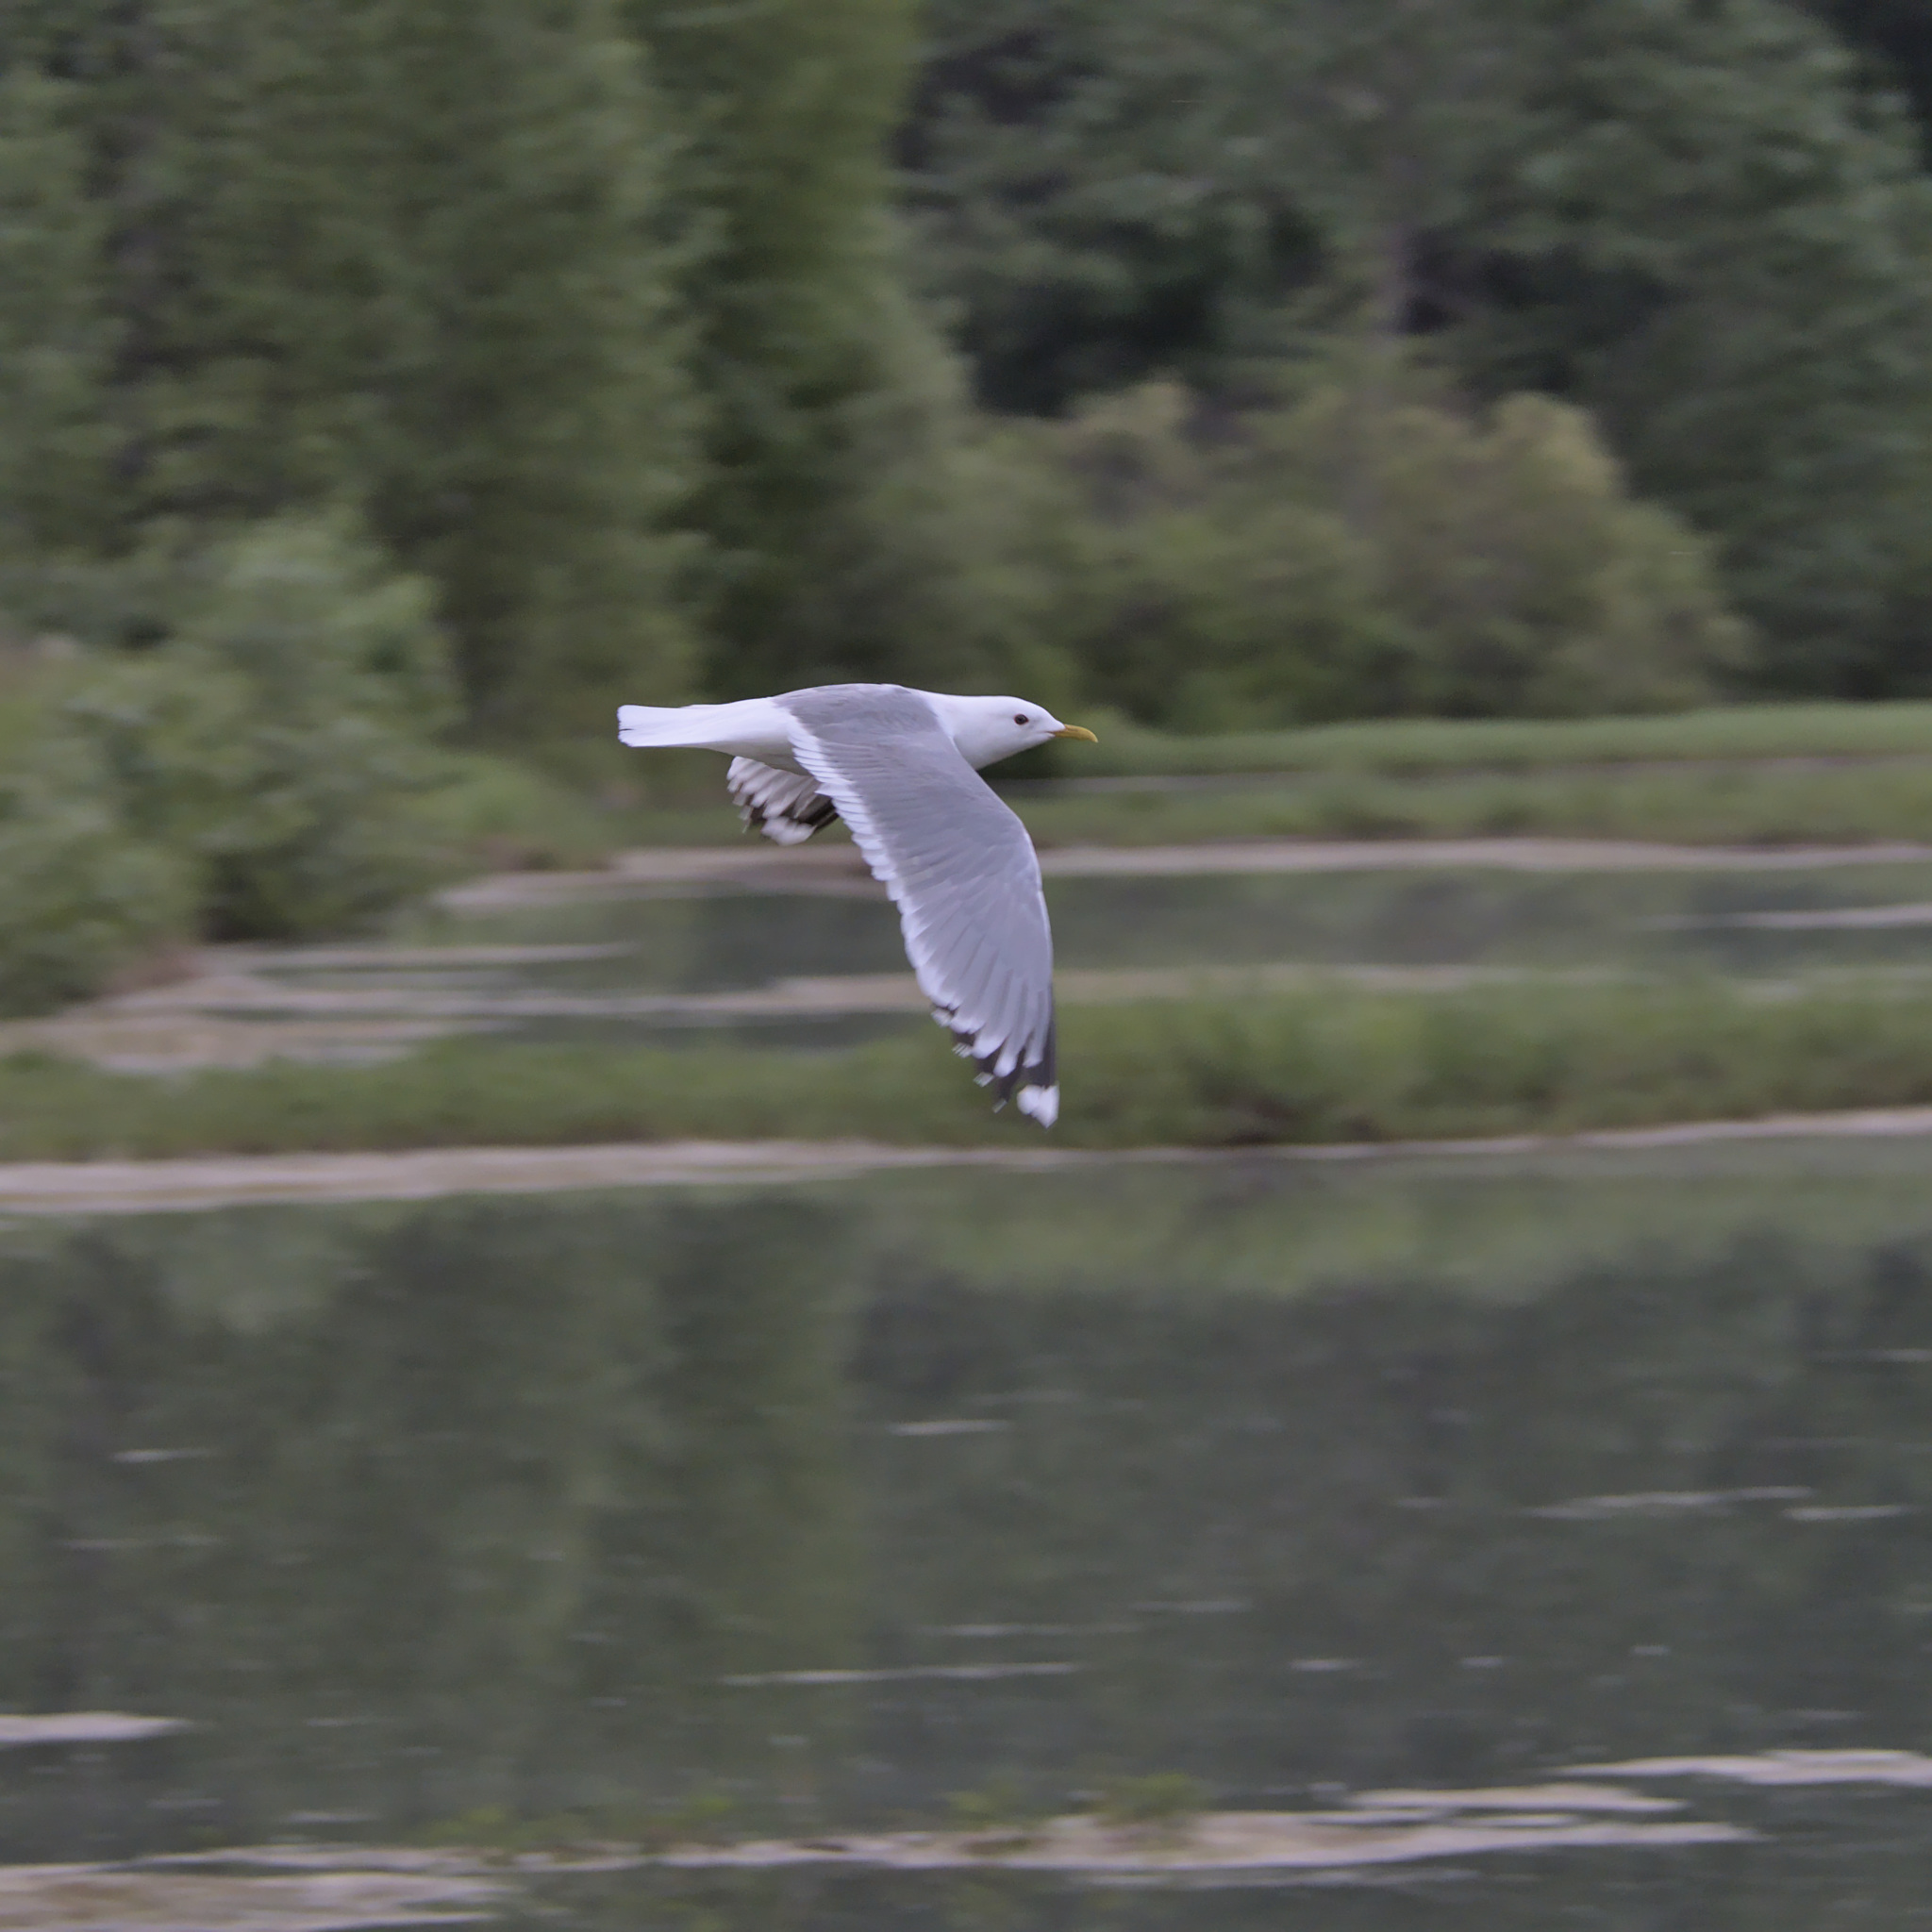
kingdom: Animalia
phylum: Chordata
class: Aves
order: Charadriiformes
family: Laridae
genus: Larus
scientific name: Larus brachyrhynchus
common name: Short-billed gull
